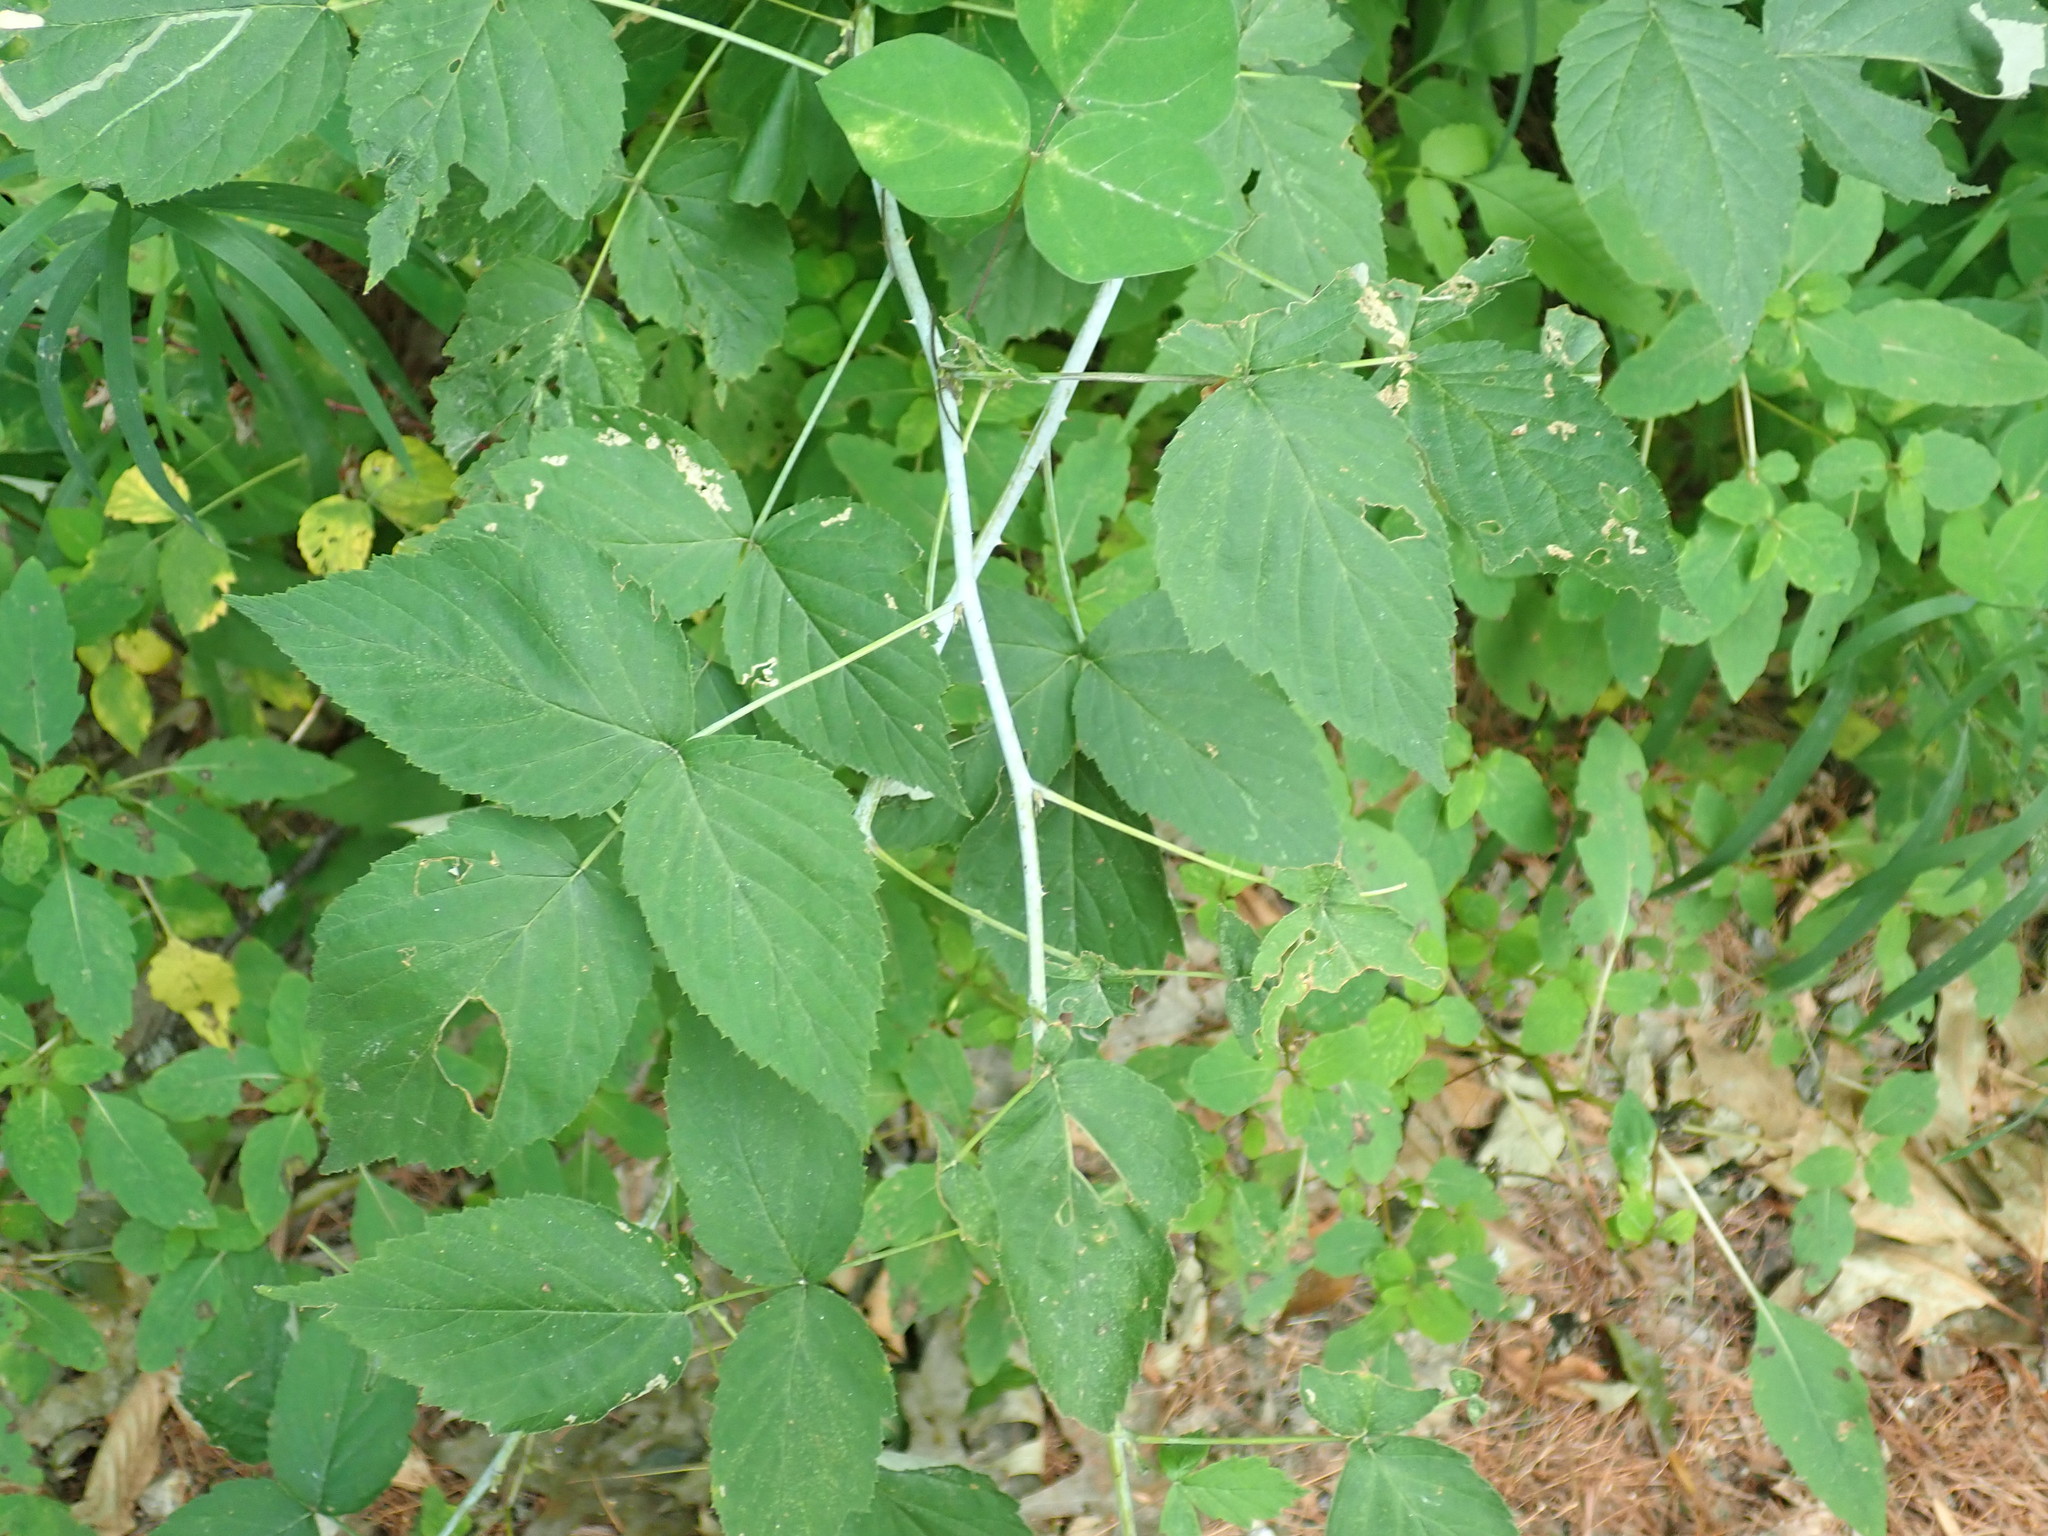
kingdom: Plantae
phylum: Tracheophyta
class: Magnoliopsida
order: Rosales
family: Rosaceae
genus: Rubus
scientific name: Rubus occidentalis
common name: Black raspberry
